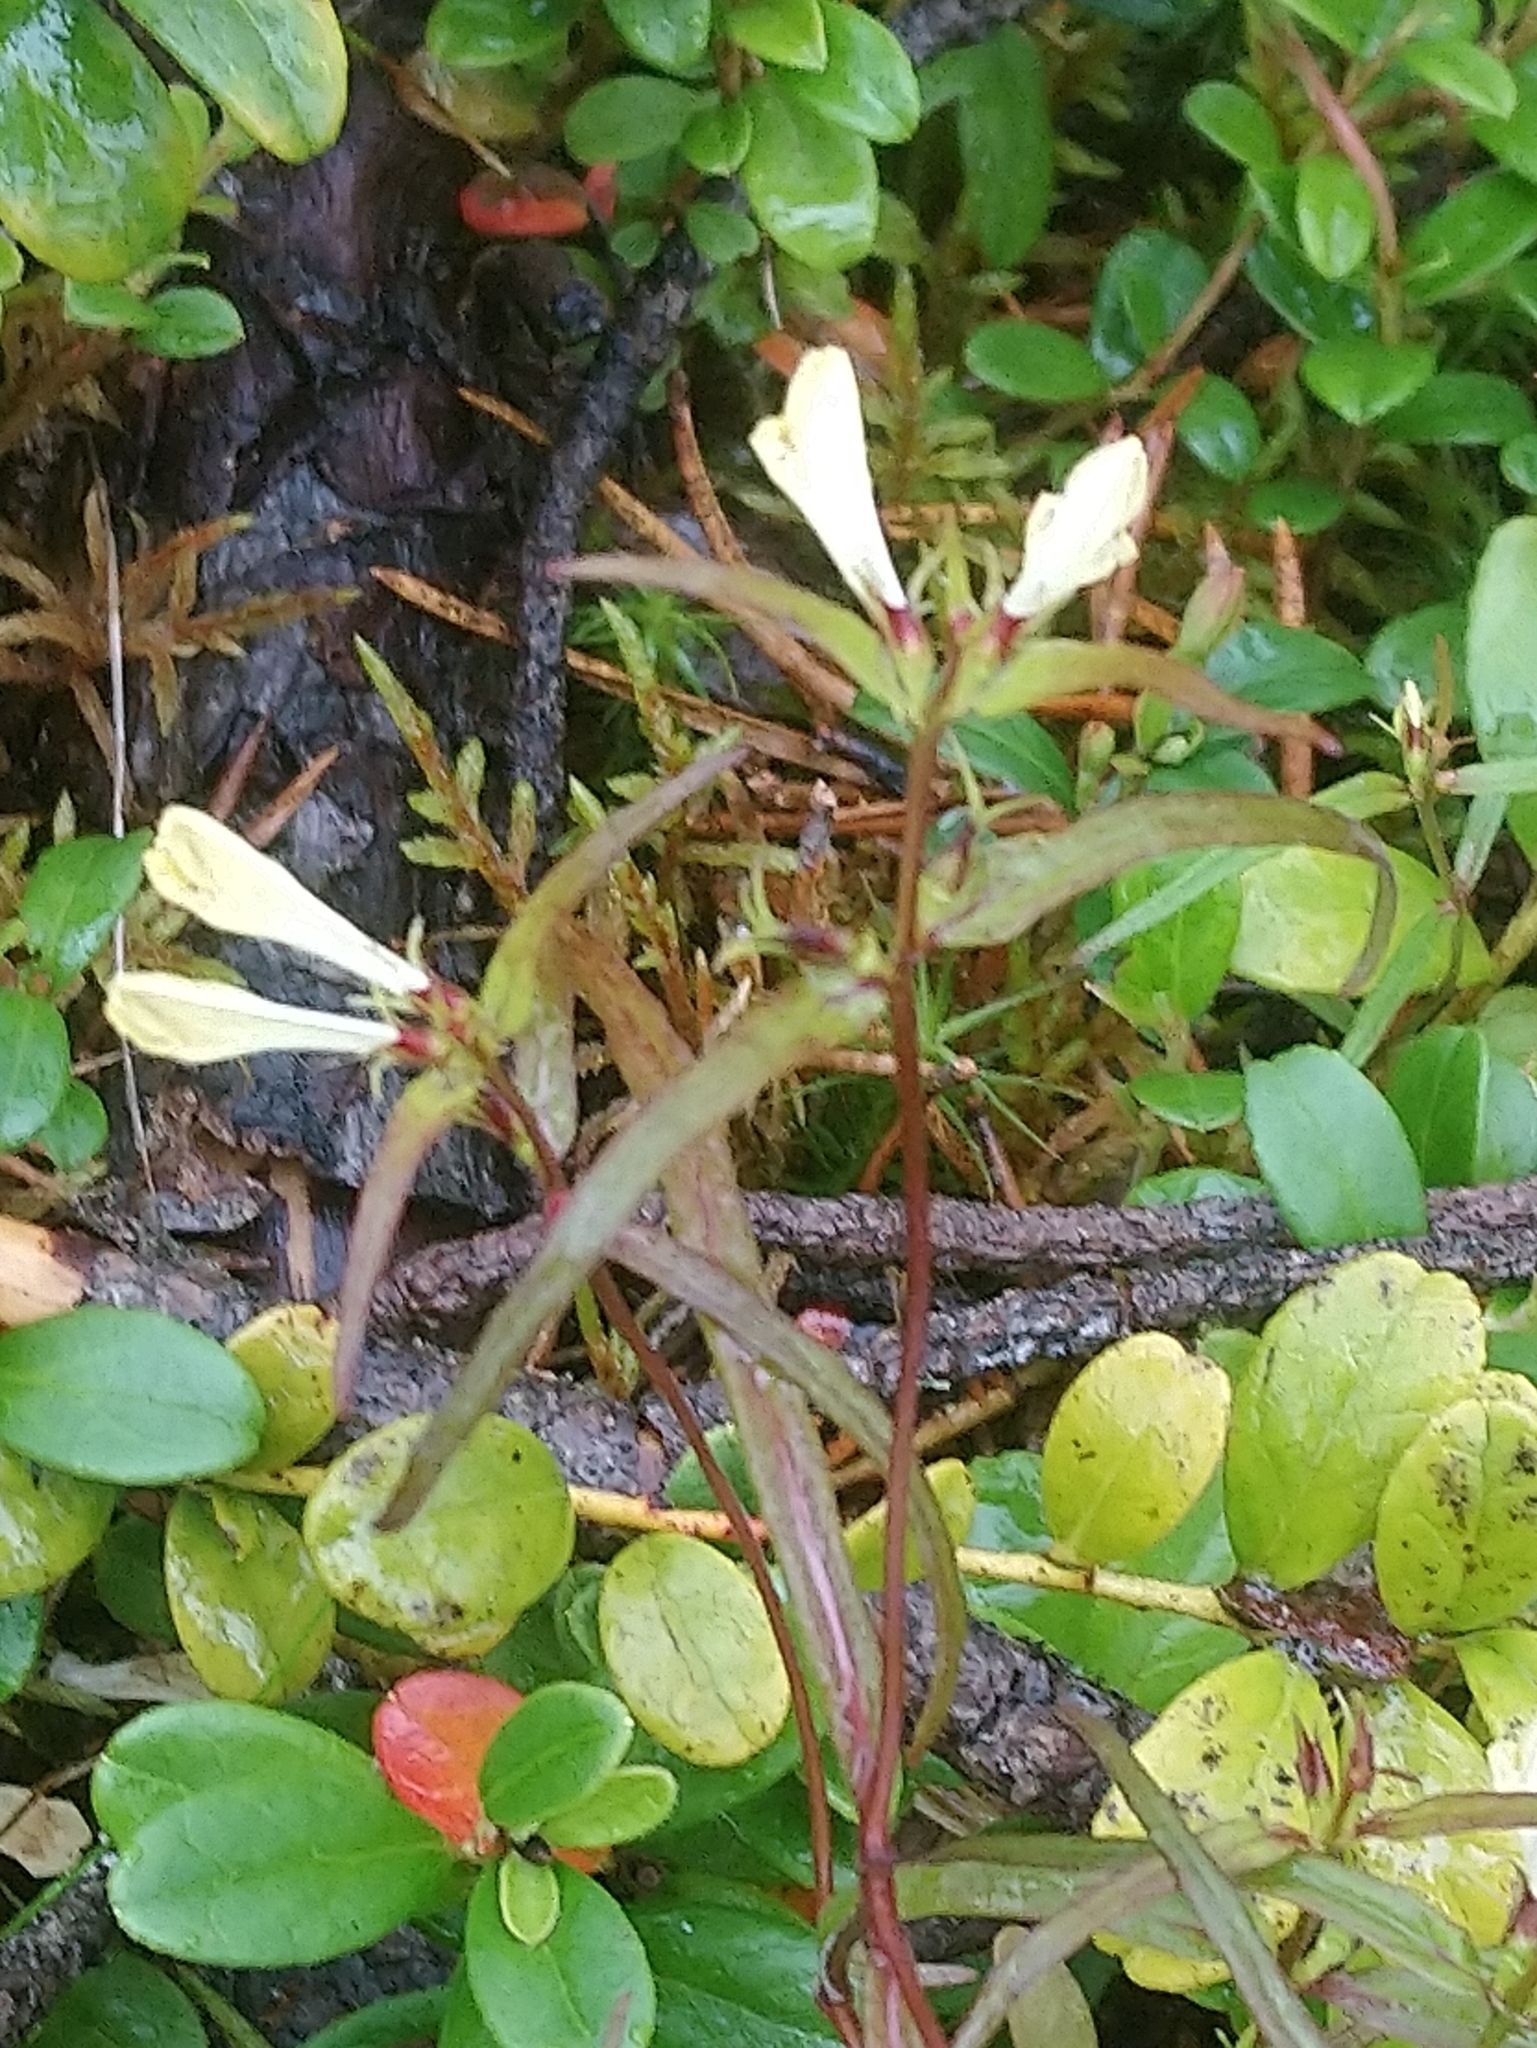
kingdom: Plantae
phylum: Tracheophyta
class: Magnoliopsida
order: Lamiales
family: Orobanchaceae
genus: Melampyrum
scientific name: Melampyrum pratense
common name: Common cow-wheat
